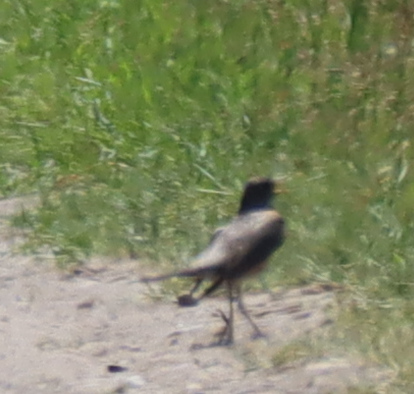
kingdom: Animalia
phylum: Chordata
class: Aves
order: Passeriformes
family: Turdidae
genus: Turdus
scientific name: Turdus migratorius
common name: American robin
